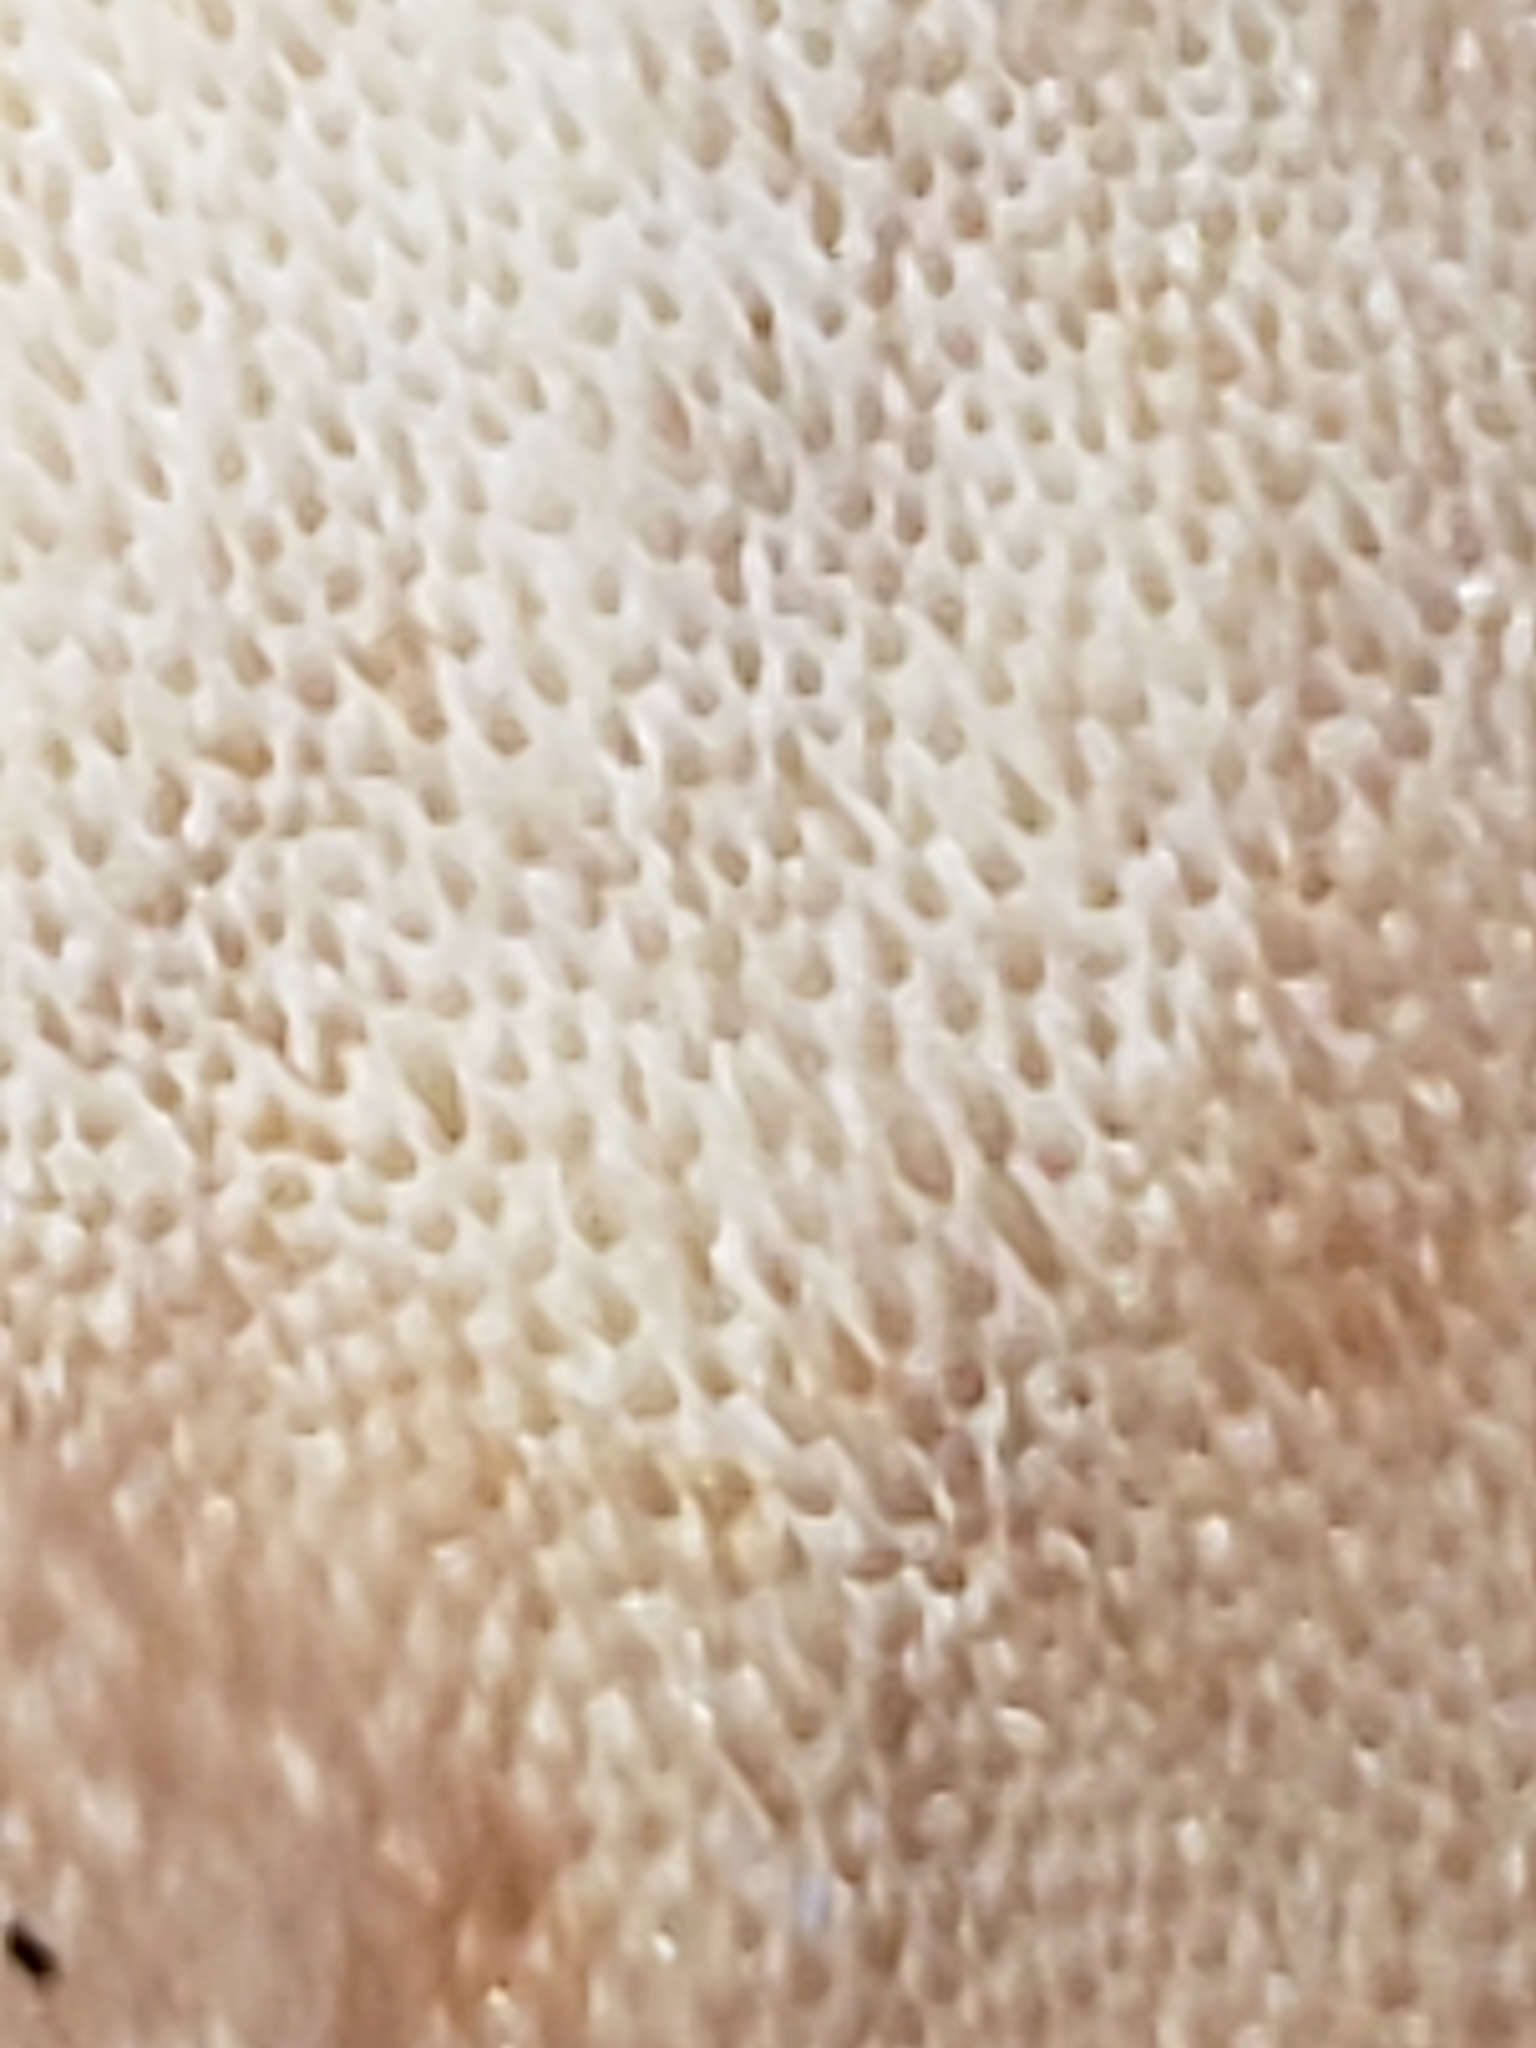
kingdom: Fungi
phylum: Basidiomycota
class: Agaricomycetes
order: Polyporales
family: Ischnodermataceae
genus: Ischnoderma
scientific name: Ischnoderma resinosum
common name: Resinous polypore
